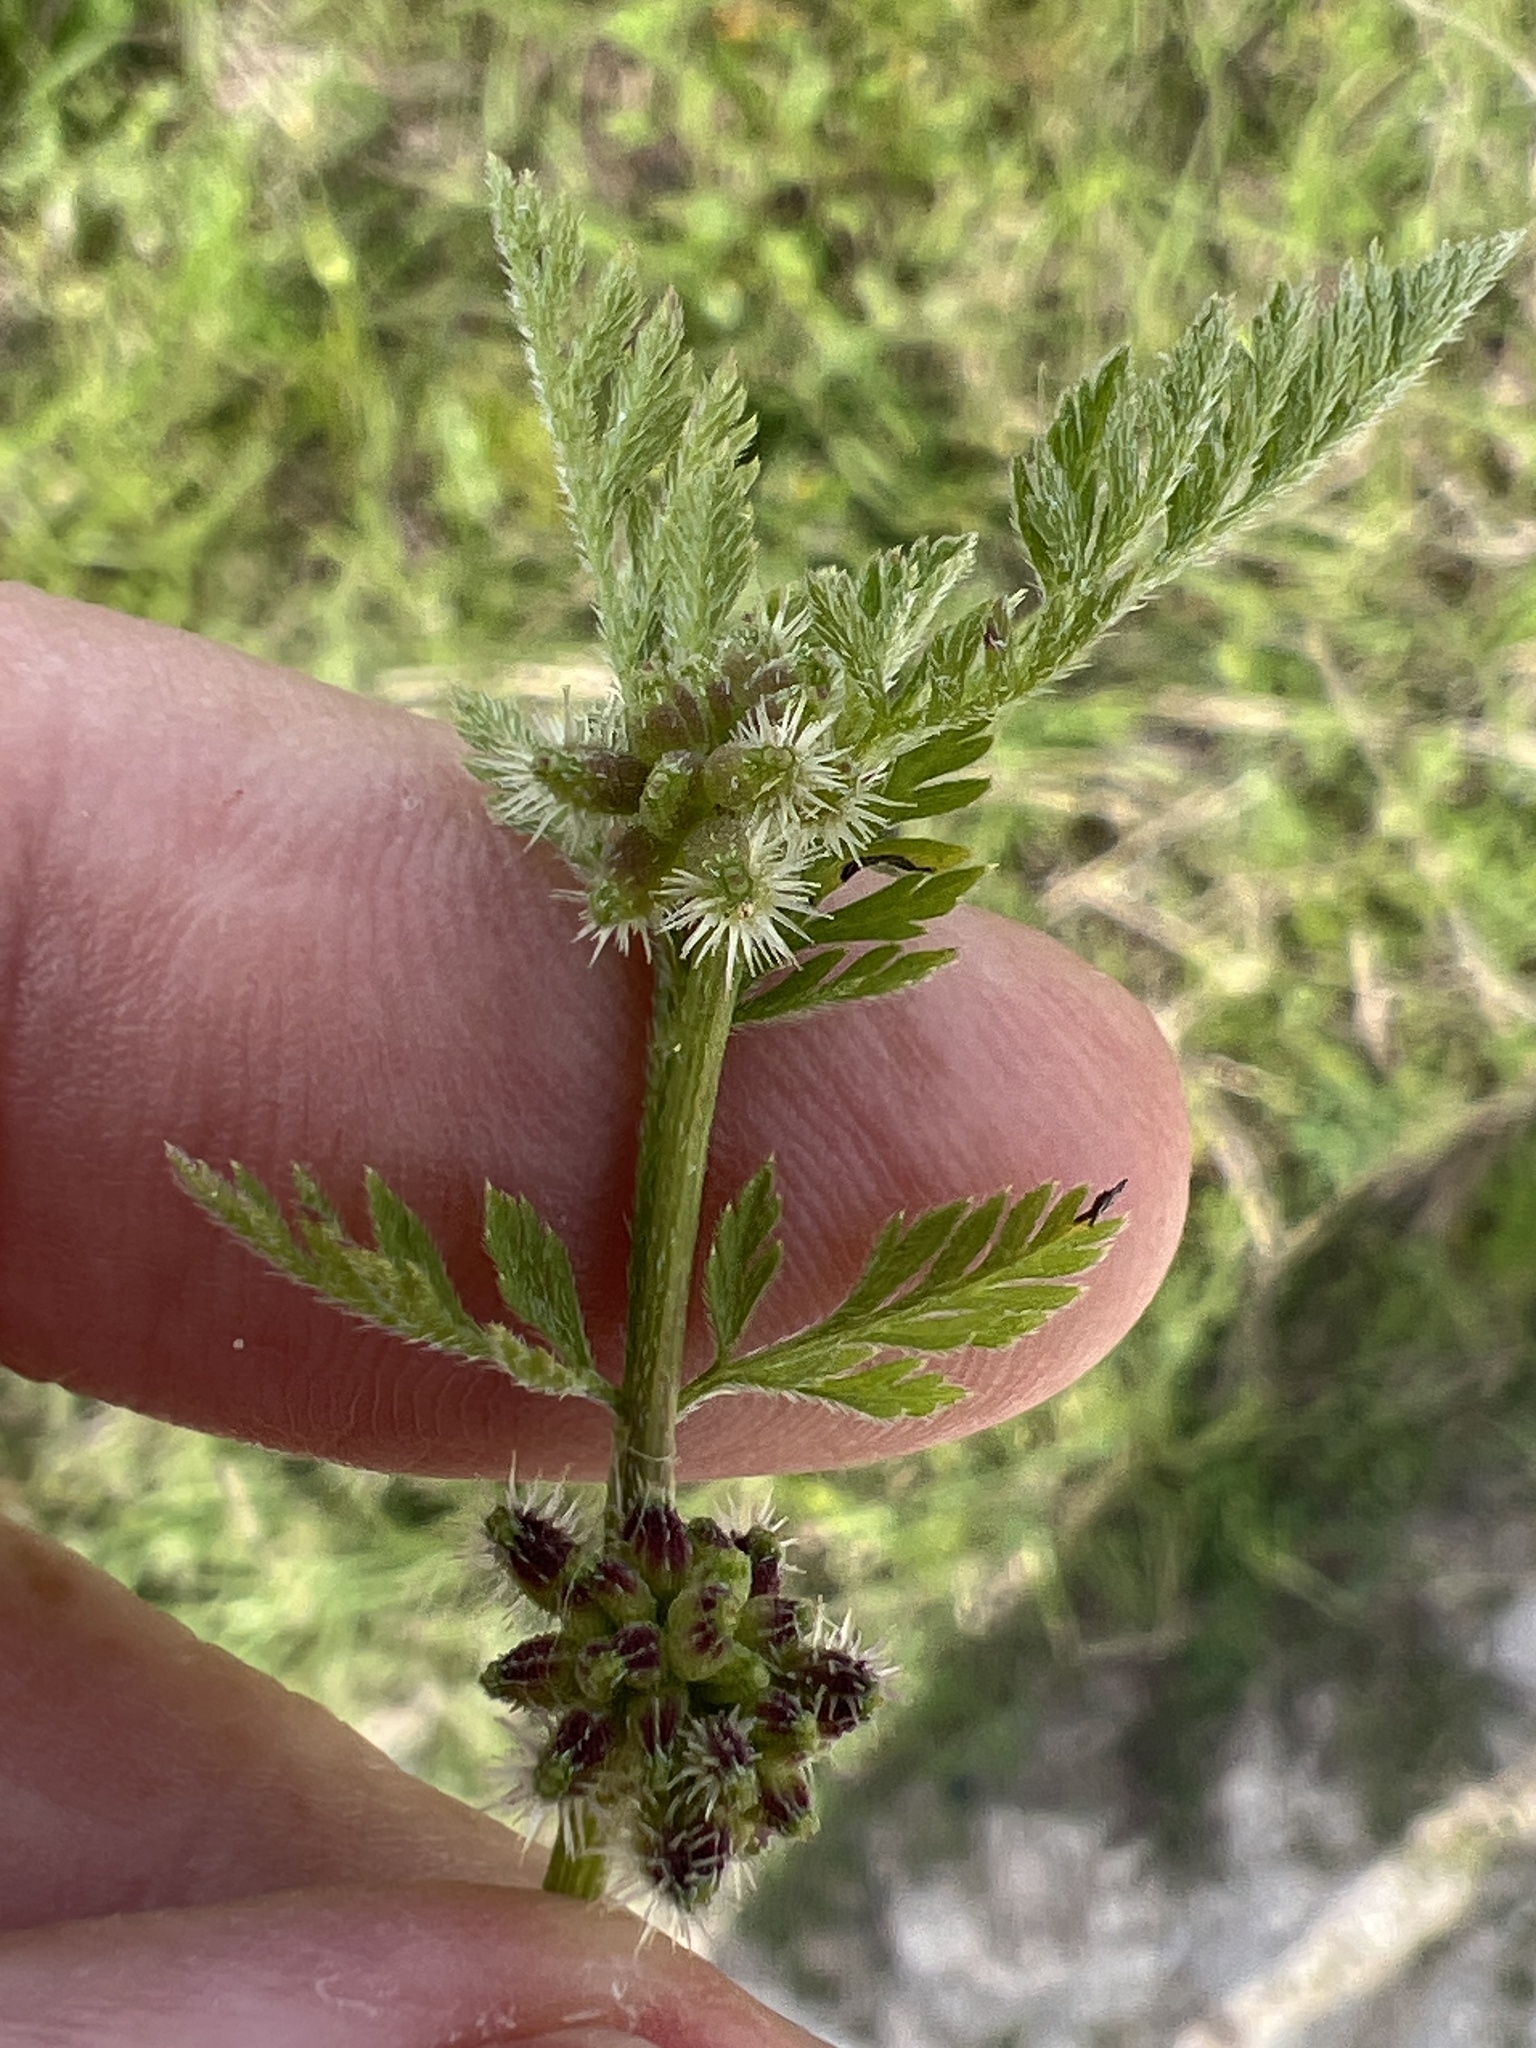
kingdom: Plantae
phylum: Tracheophyta
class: Magnoliopsida
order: Apiales
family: Apiaceae
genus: Torilis
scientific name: Torilis nodosa
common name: Knotted hedge-parsley
